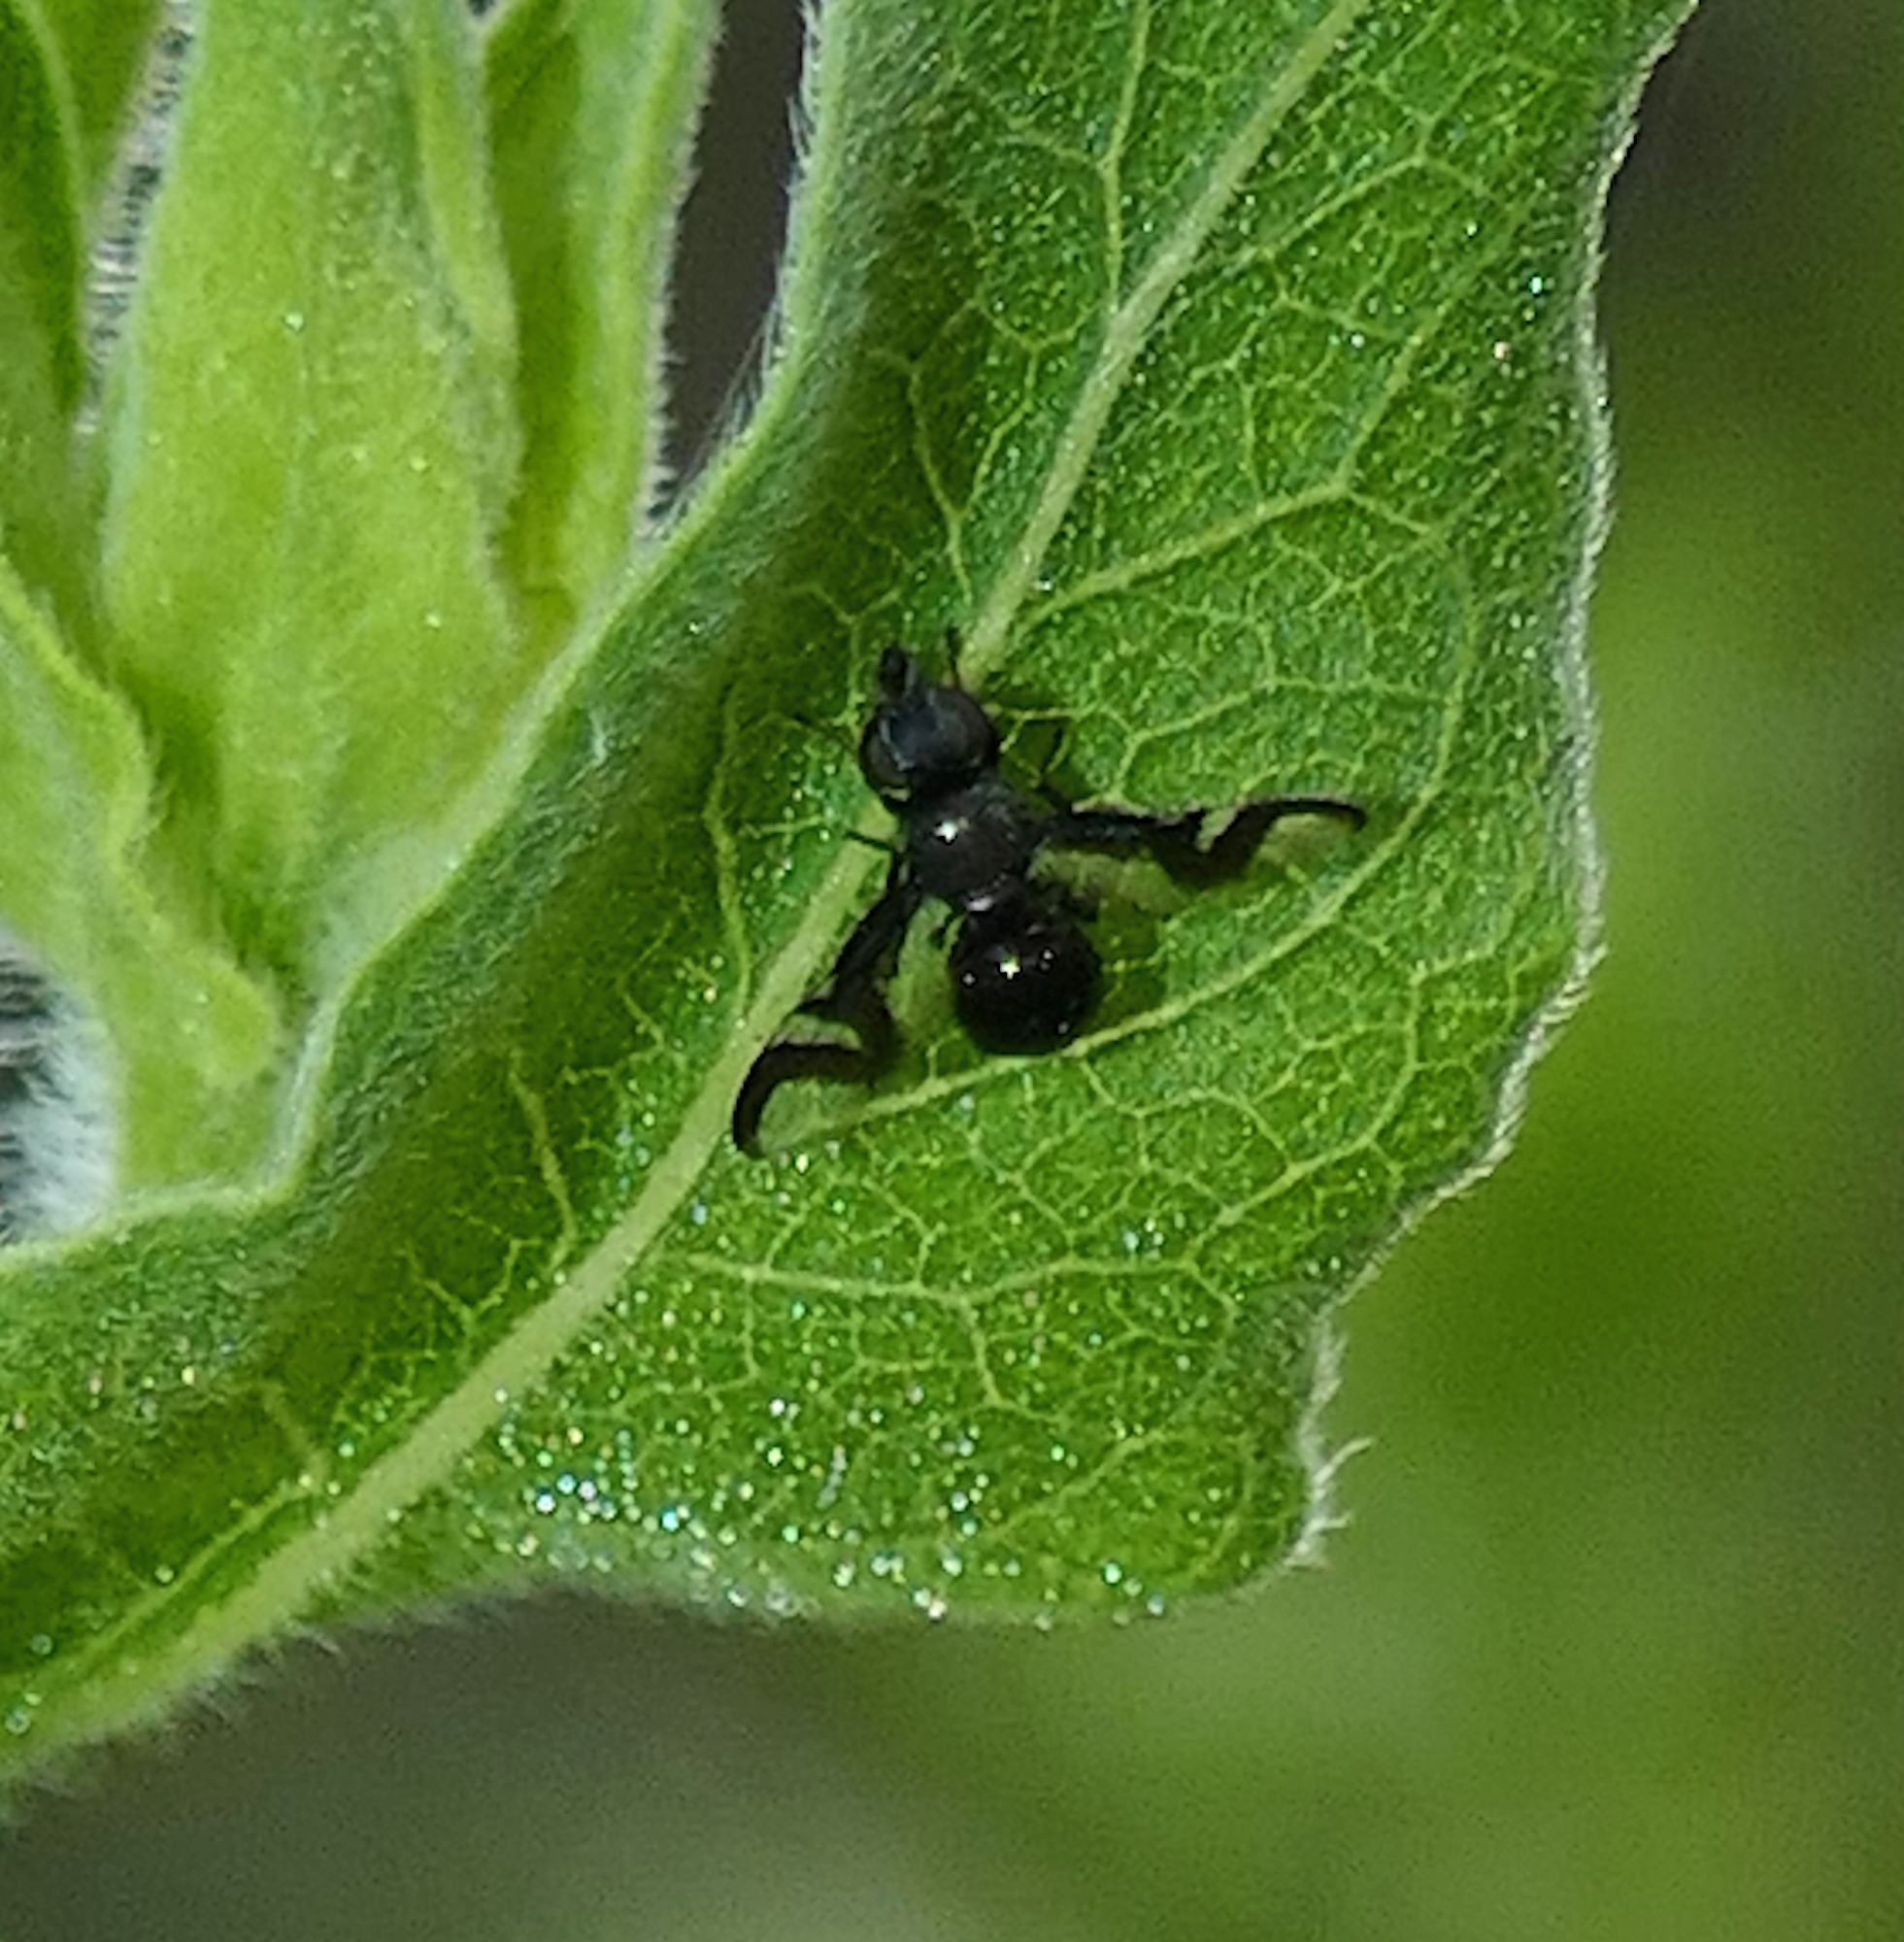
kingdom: Animalia
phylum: Arthropoda
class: Insecta
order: Diptera
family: Platystomatidae
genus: Rivellia
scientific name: Rivellia wulpiana
